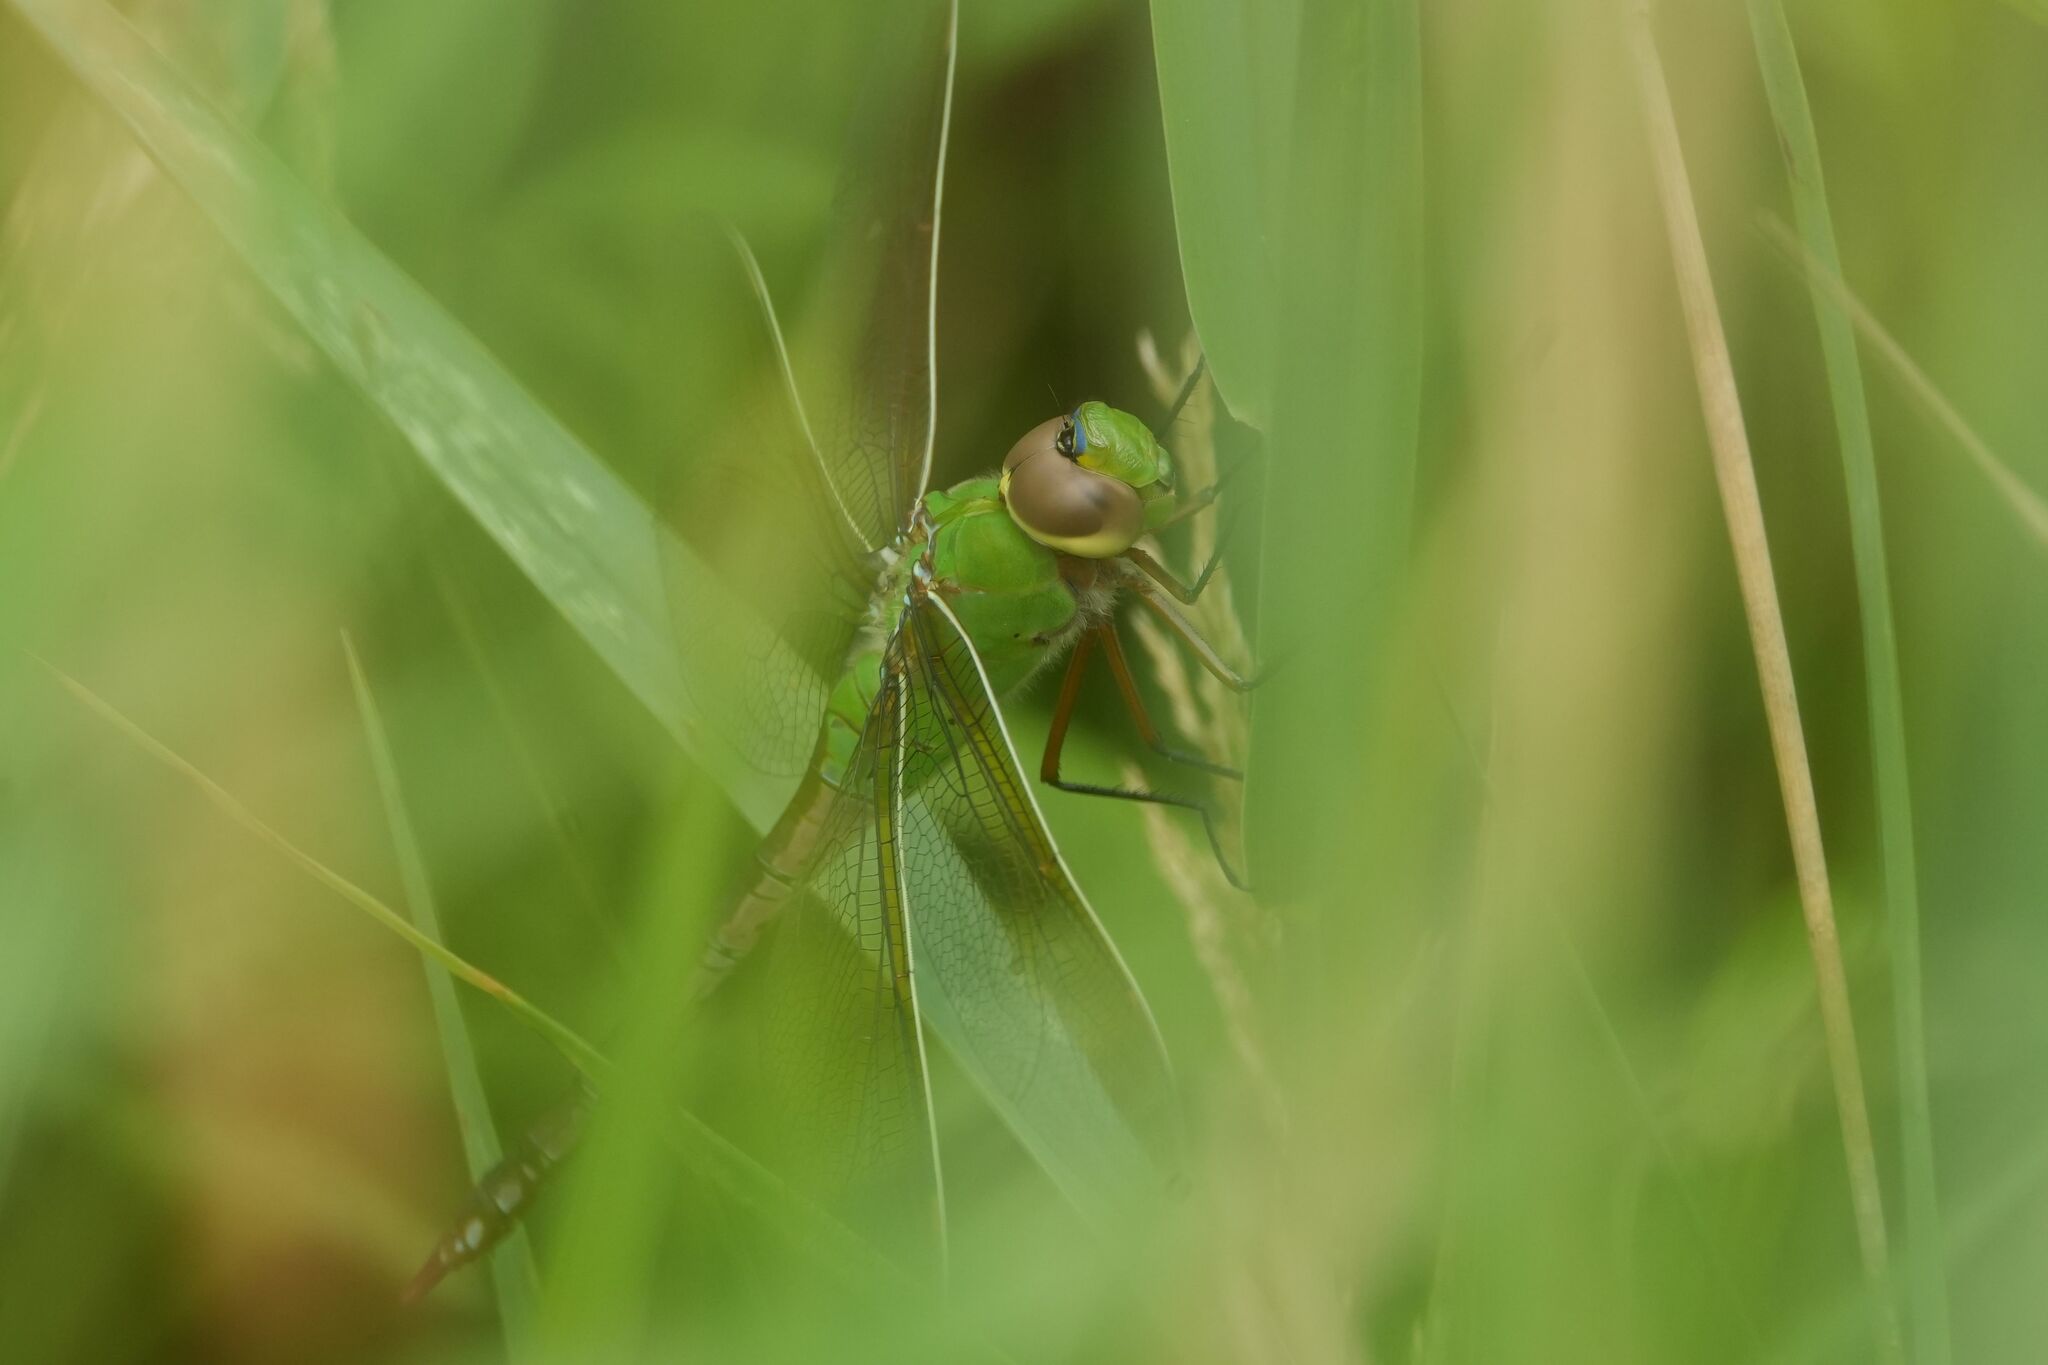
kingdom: Animalia
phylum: Arthropoda
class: Insecta
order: Odonata
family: Aeshnidae
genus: Anax
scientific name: Anax junius
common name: Common green darner
